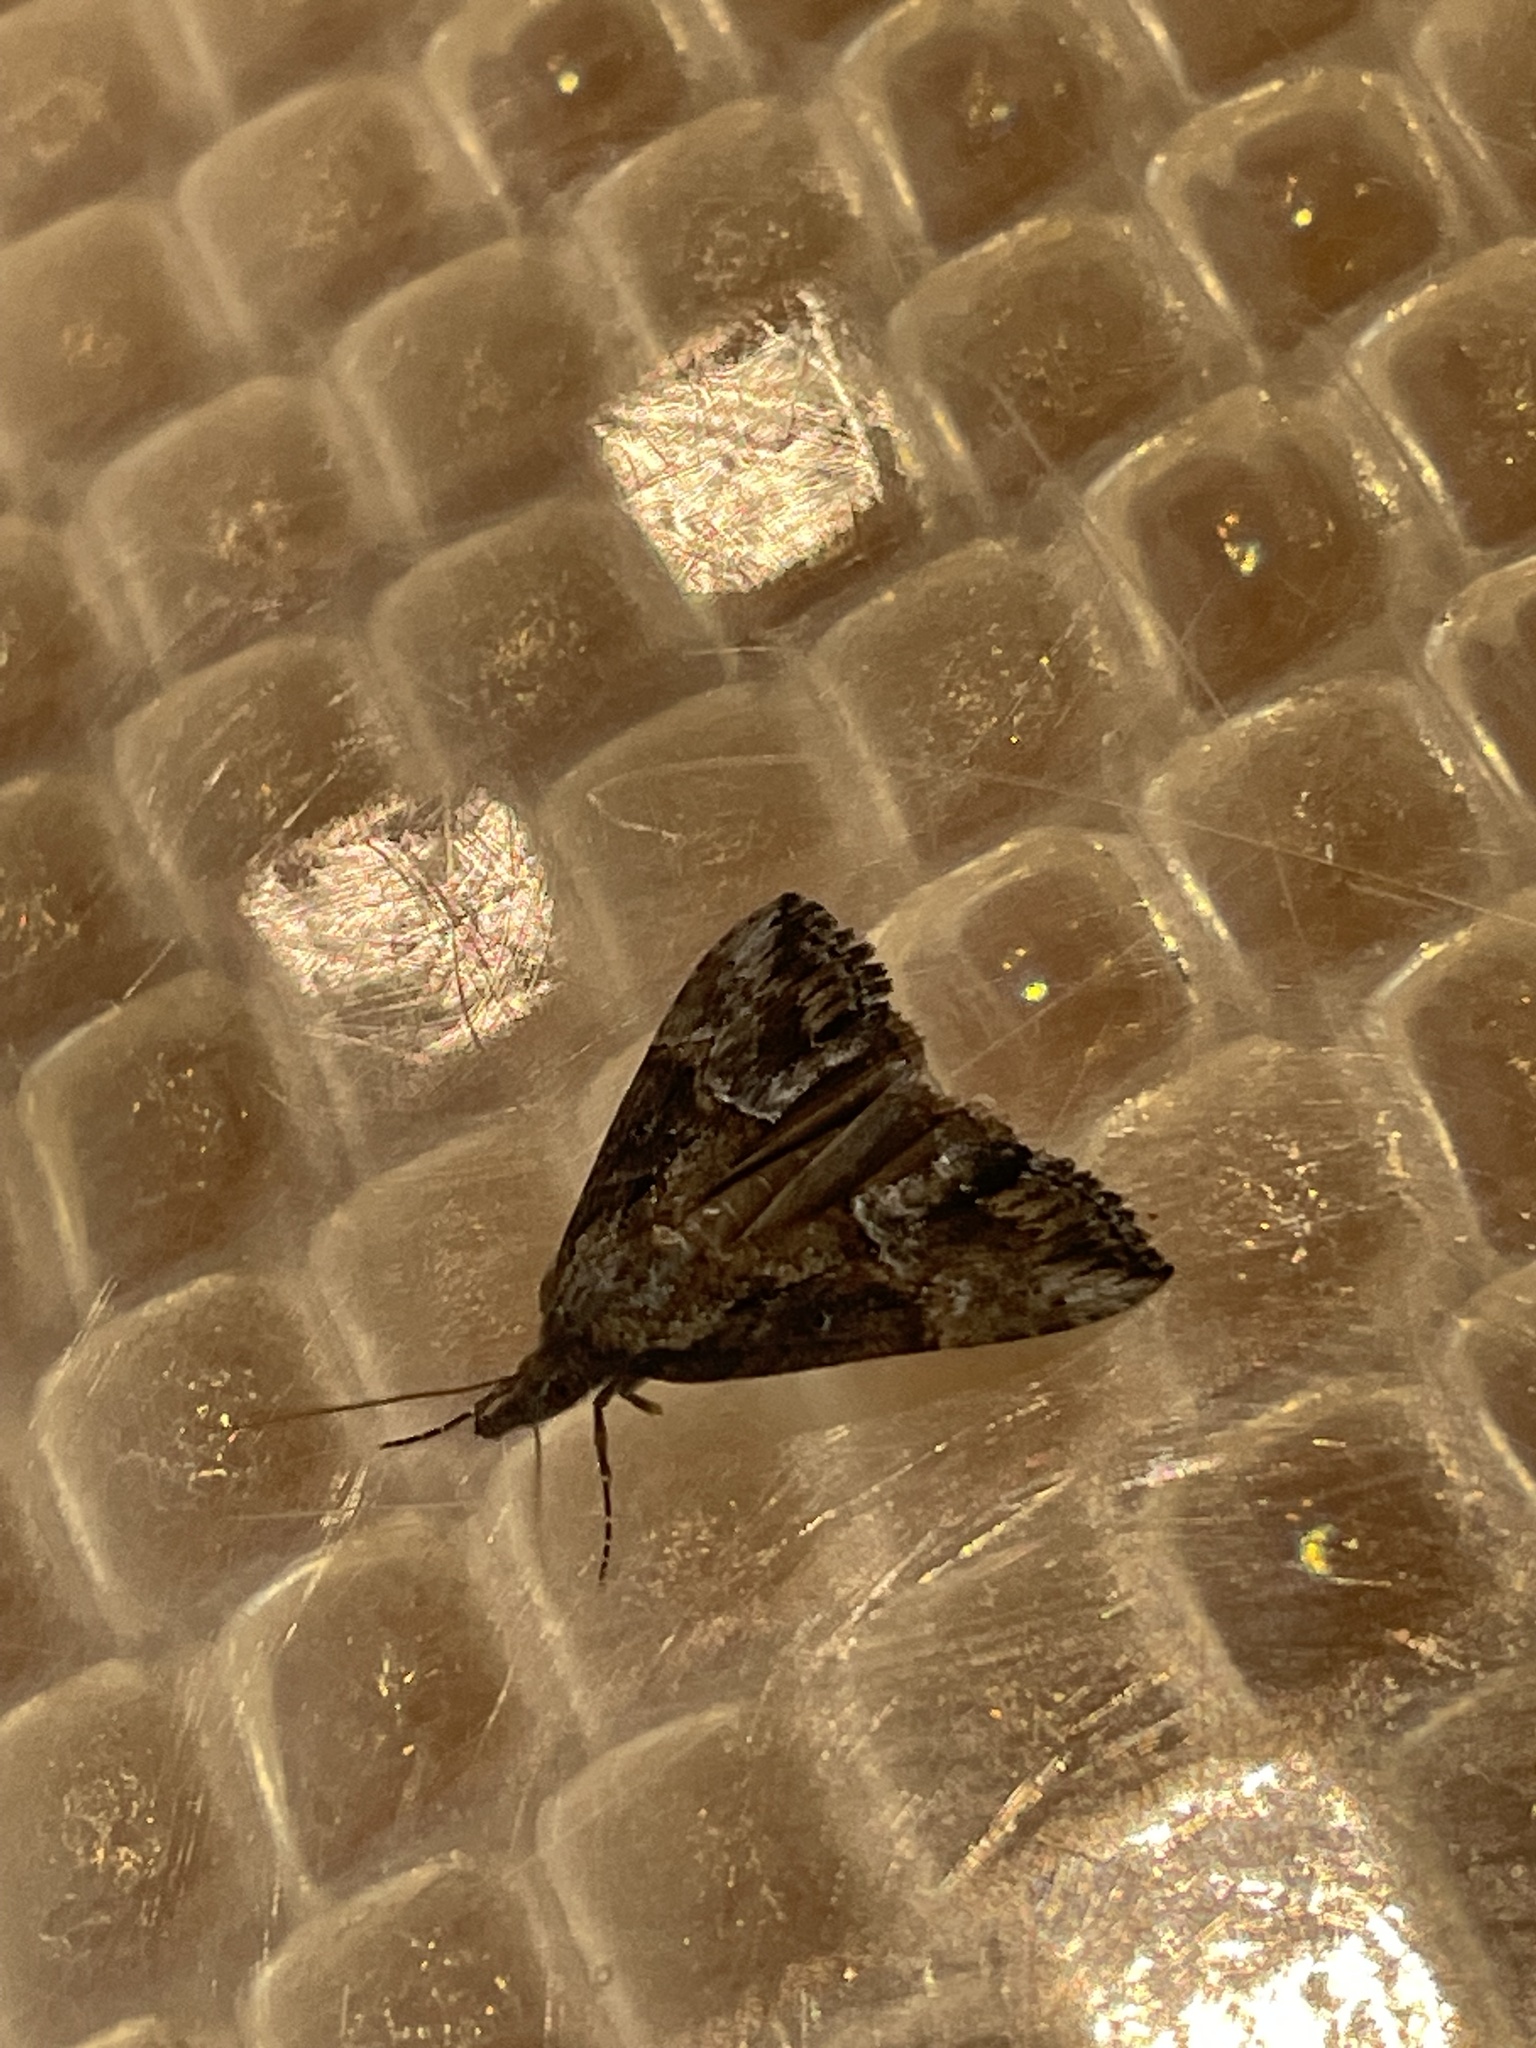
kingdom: Animalia
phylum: Arthropoda
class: Insecta
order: Lepidoptera
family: Erebidae
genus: Hypena
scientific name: Hypena scabra
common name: Green cloverworm
